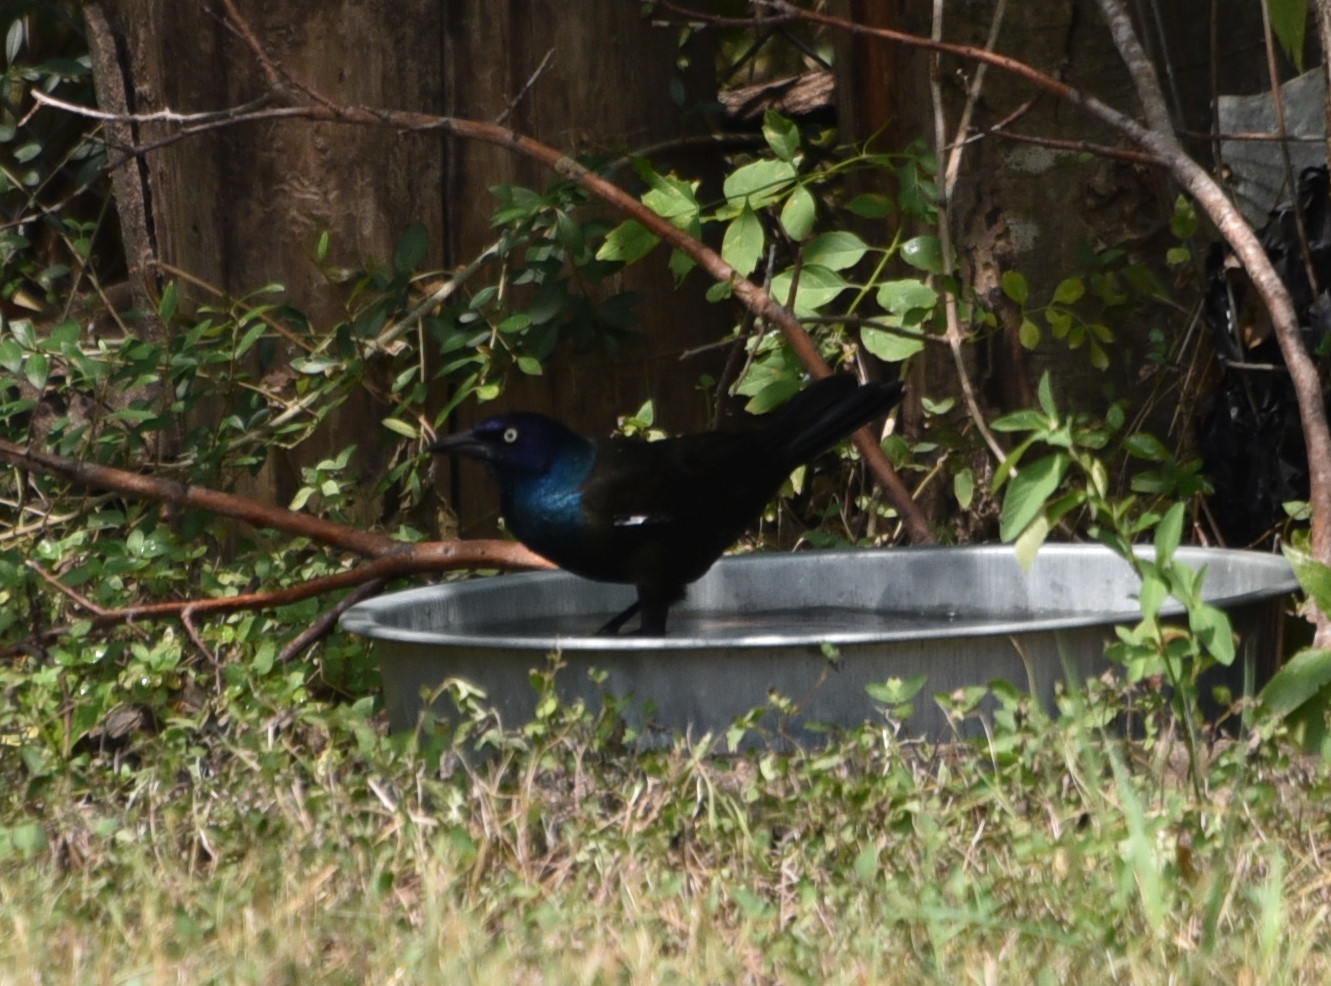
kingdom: Animalia
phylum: Chordata
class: Aves
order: Passeriformes
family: Icteridae
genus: Quiscalus
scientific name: Quiscalus quiscula
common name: Common grackle
